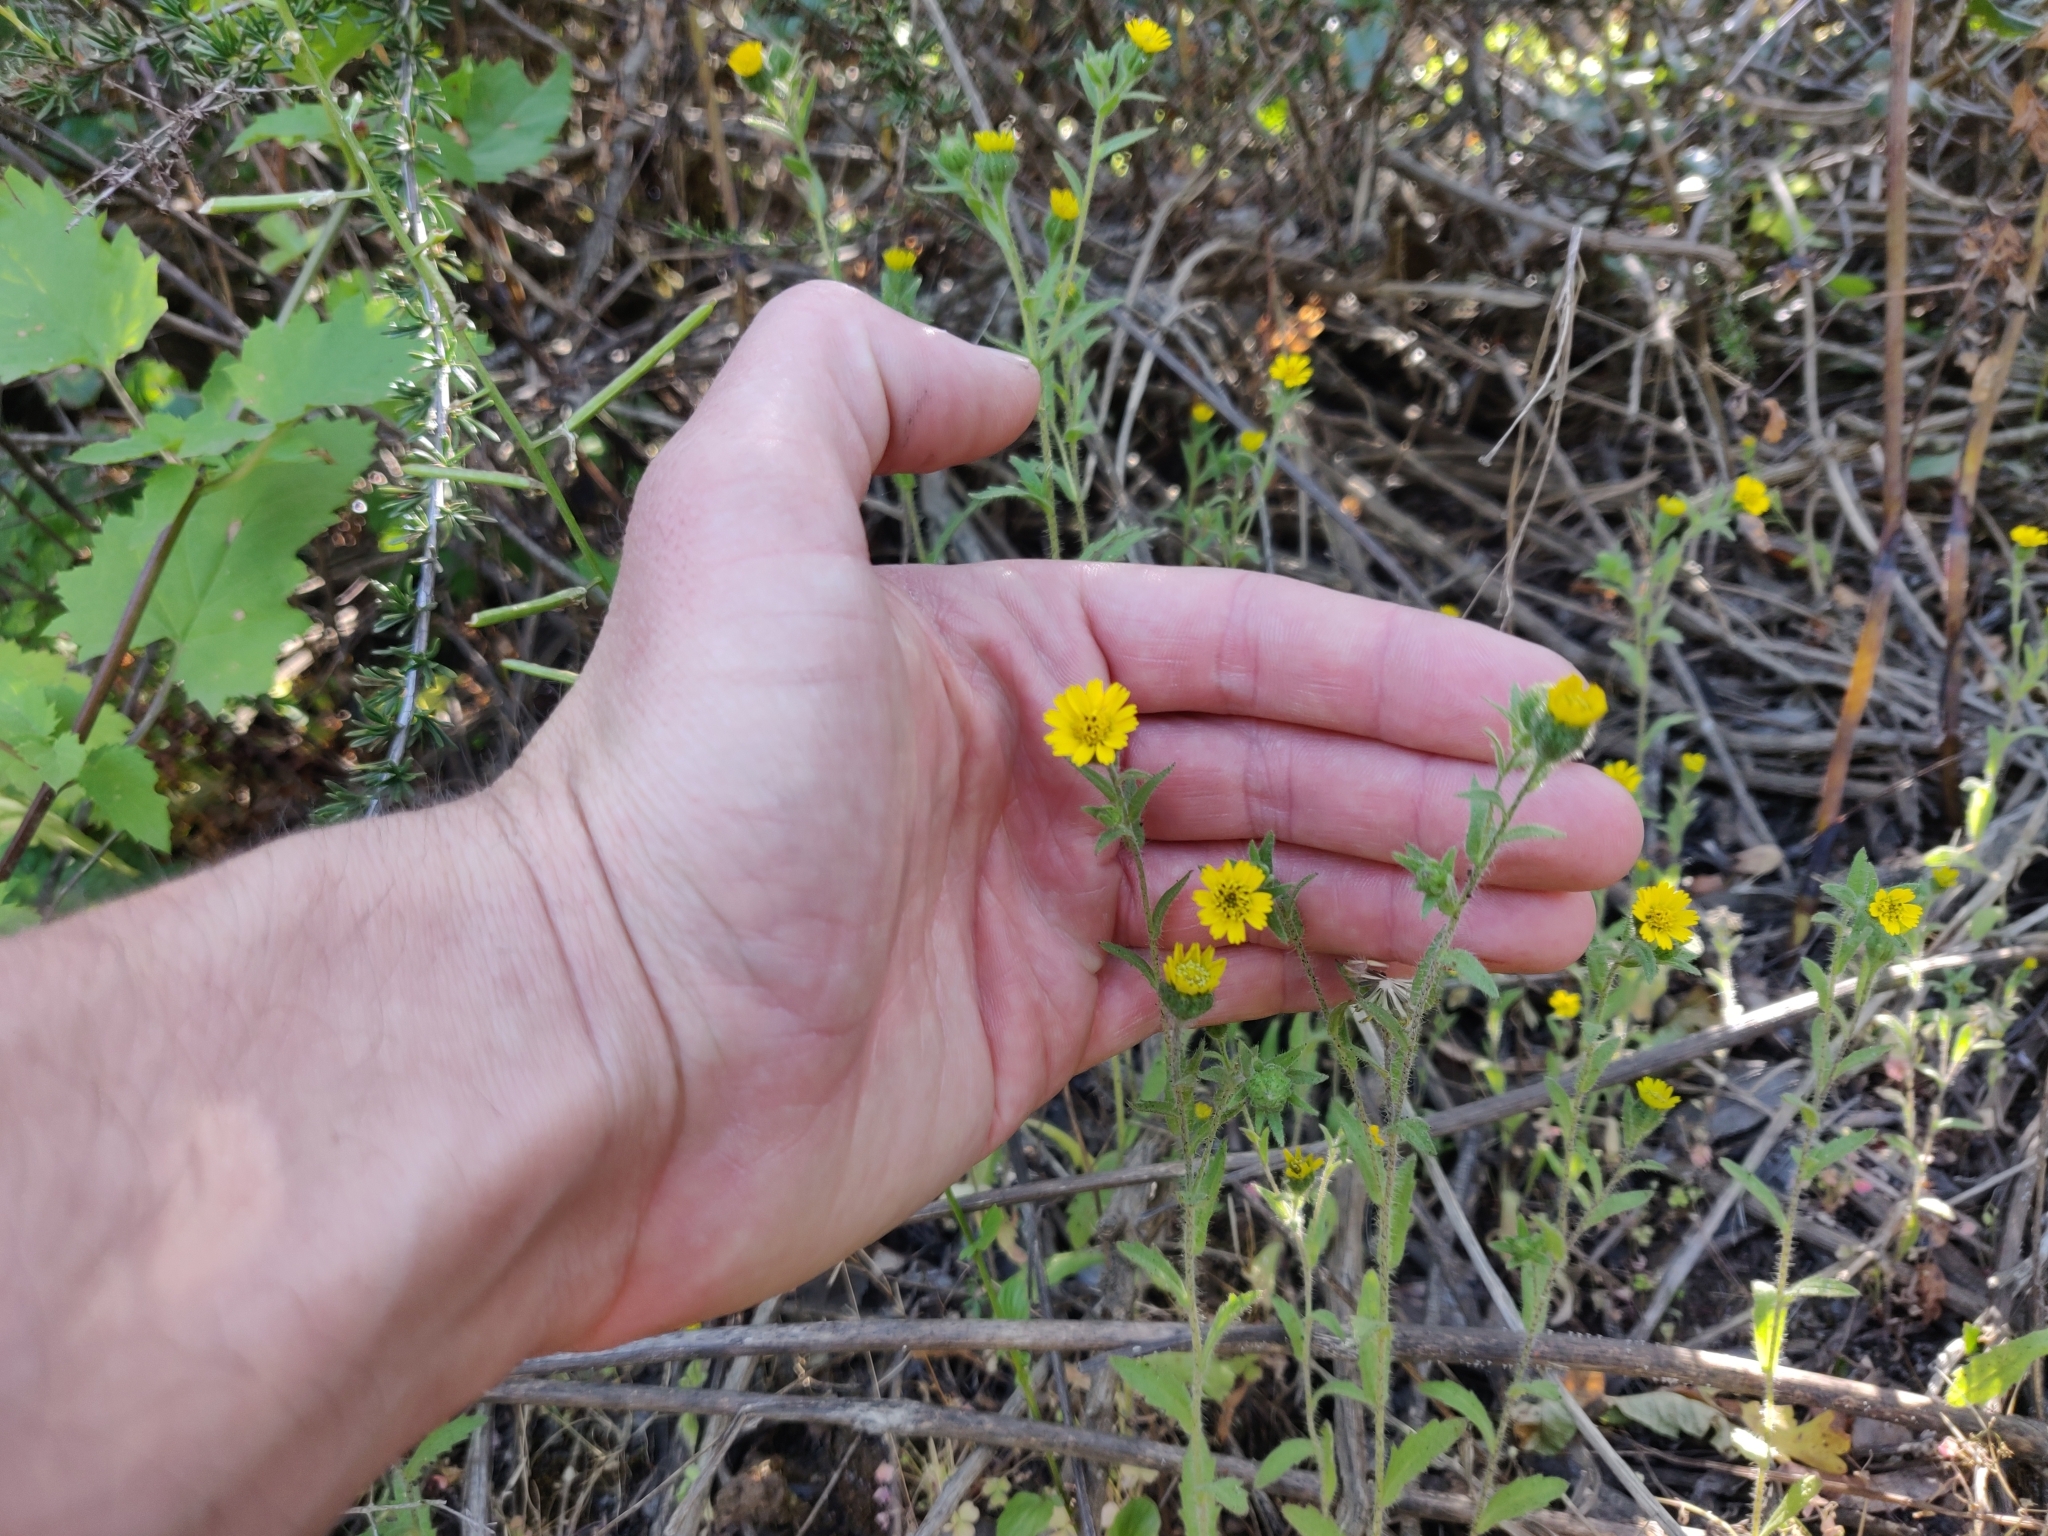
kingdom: Plantae
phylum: Tracheophyta
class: Magnoliopsida
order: Asterales
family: Asteraceae
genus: Layia
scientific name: Layia hieracioides
